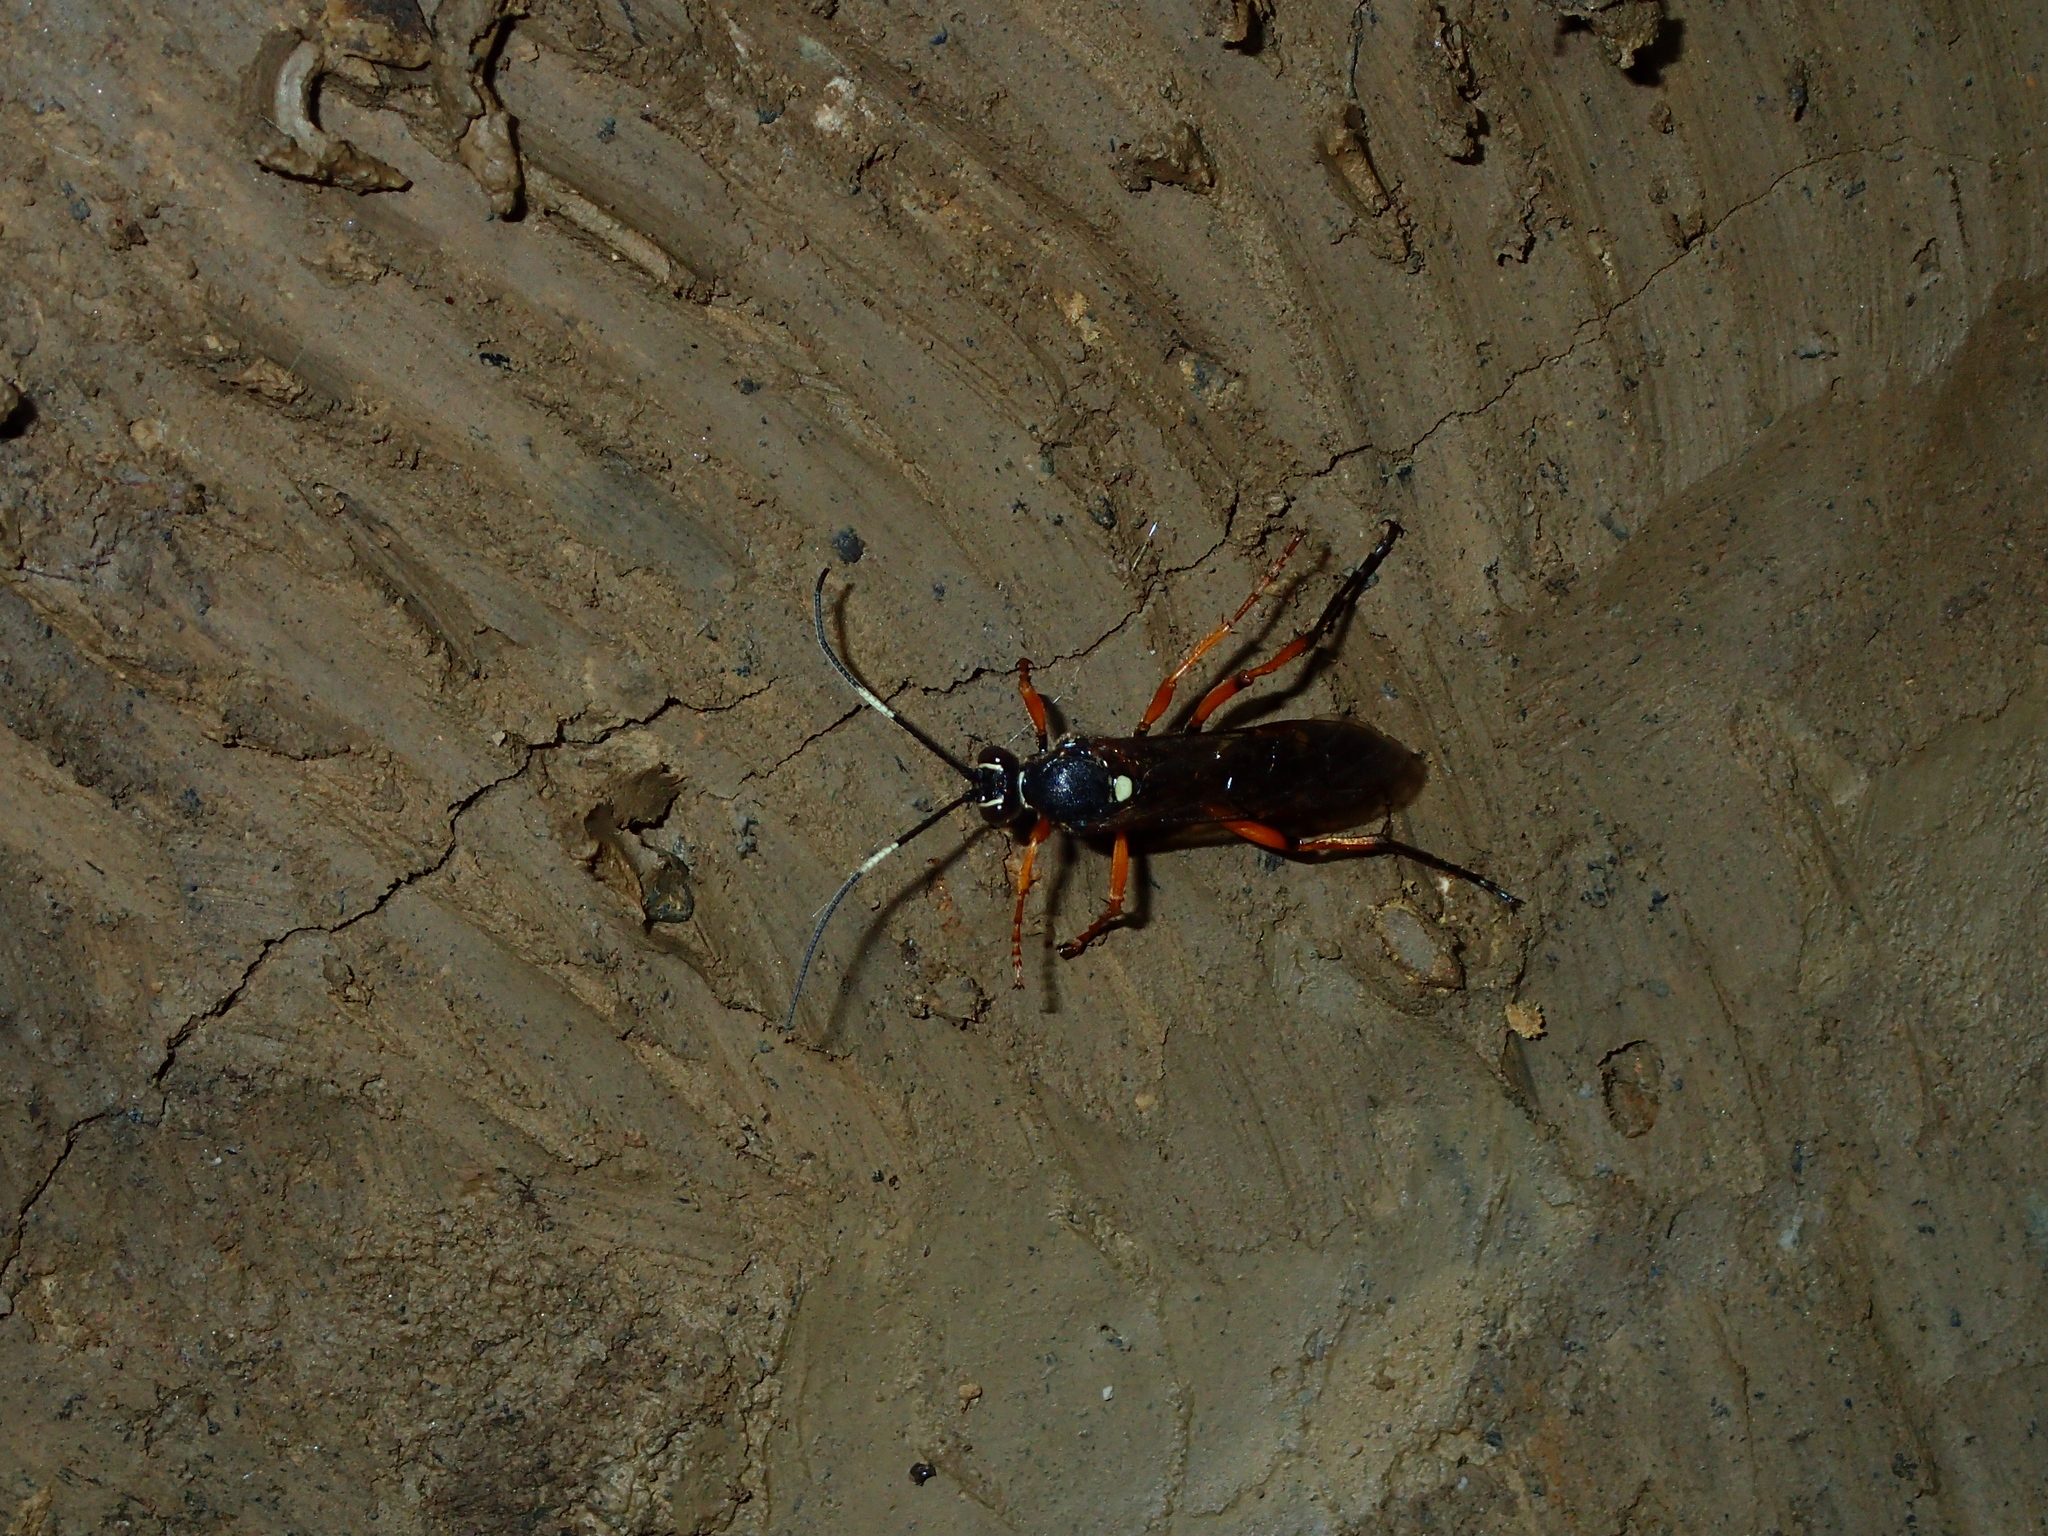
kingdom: Animalia
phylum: Arthropoda
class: Insecta
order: Hymenoptera
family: Ichneumonidae
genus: Diphyus
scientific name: Diphyus quadripunctorius
